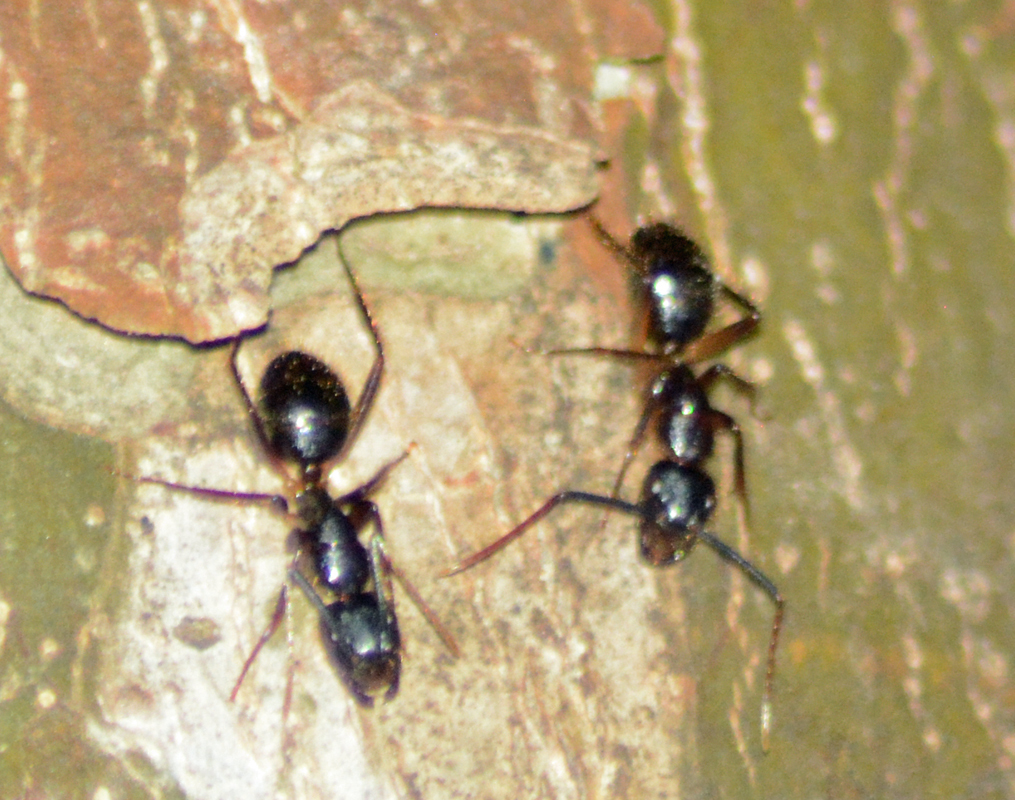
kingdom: Animalia
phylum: Arthropoda
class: Insecta
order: Hymenoptera
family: Formicidae
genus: Camponotus
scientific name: Camponotus atriceps
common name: Florida carpenter ant
